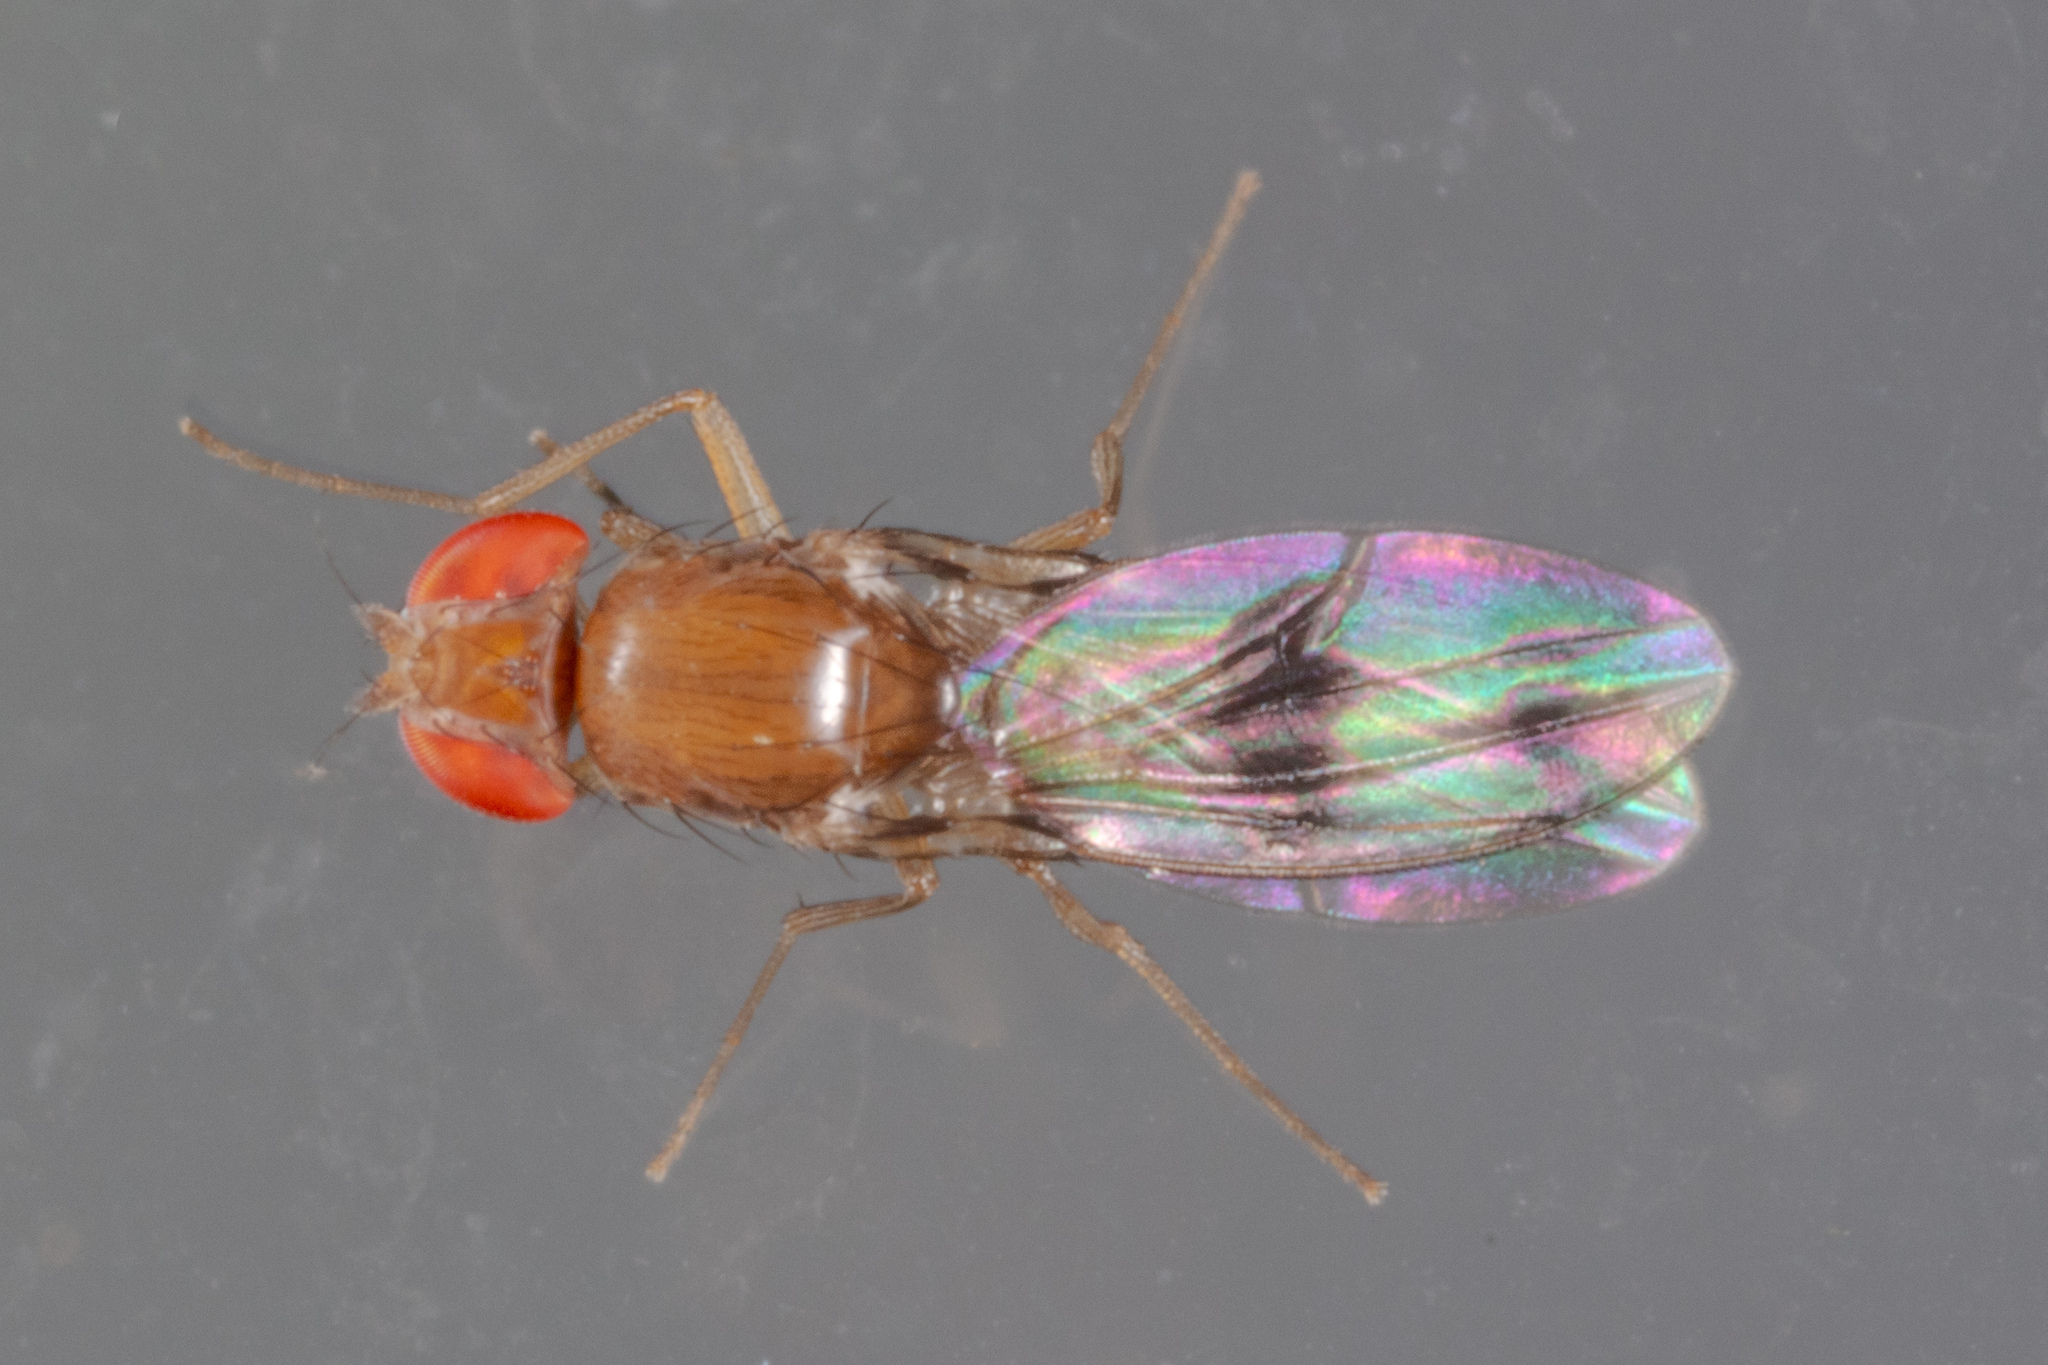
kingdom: Animalia
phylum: Arthropoda
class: Insecta
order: Diptera
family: Drosophilidae
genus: Chymomyza
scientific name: Chymomyza amoena
